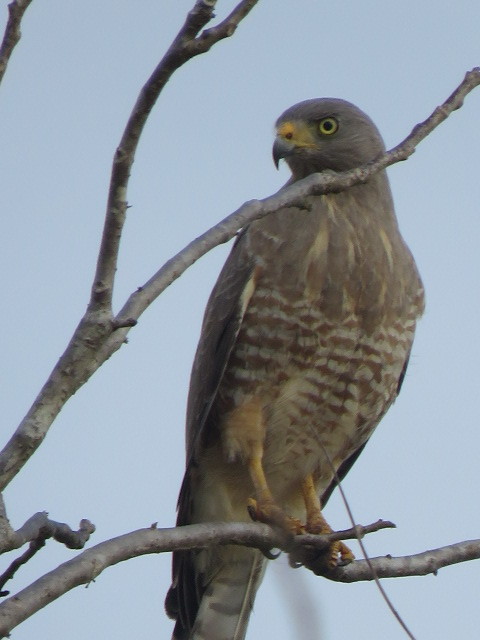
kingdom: Animalia
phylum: Chordata
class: Aves
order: Accipitriformes
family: Accipitridae
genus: Rupornis
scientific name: Rupornis magnirostris
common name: Roadside hawk
